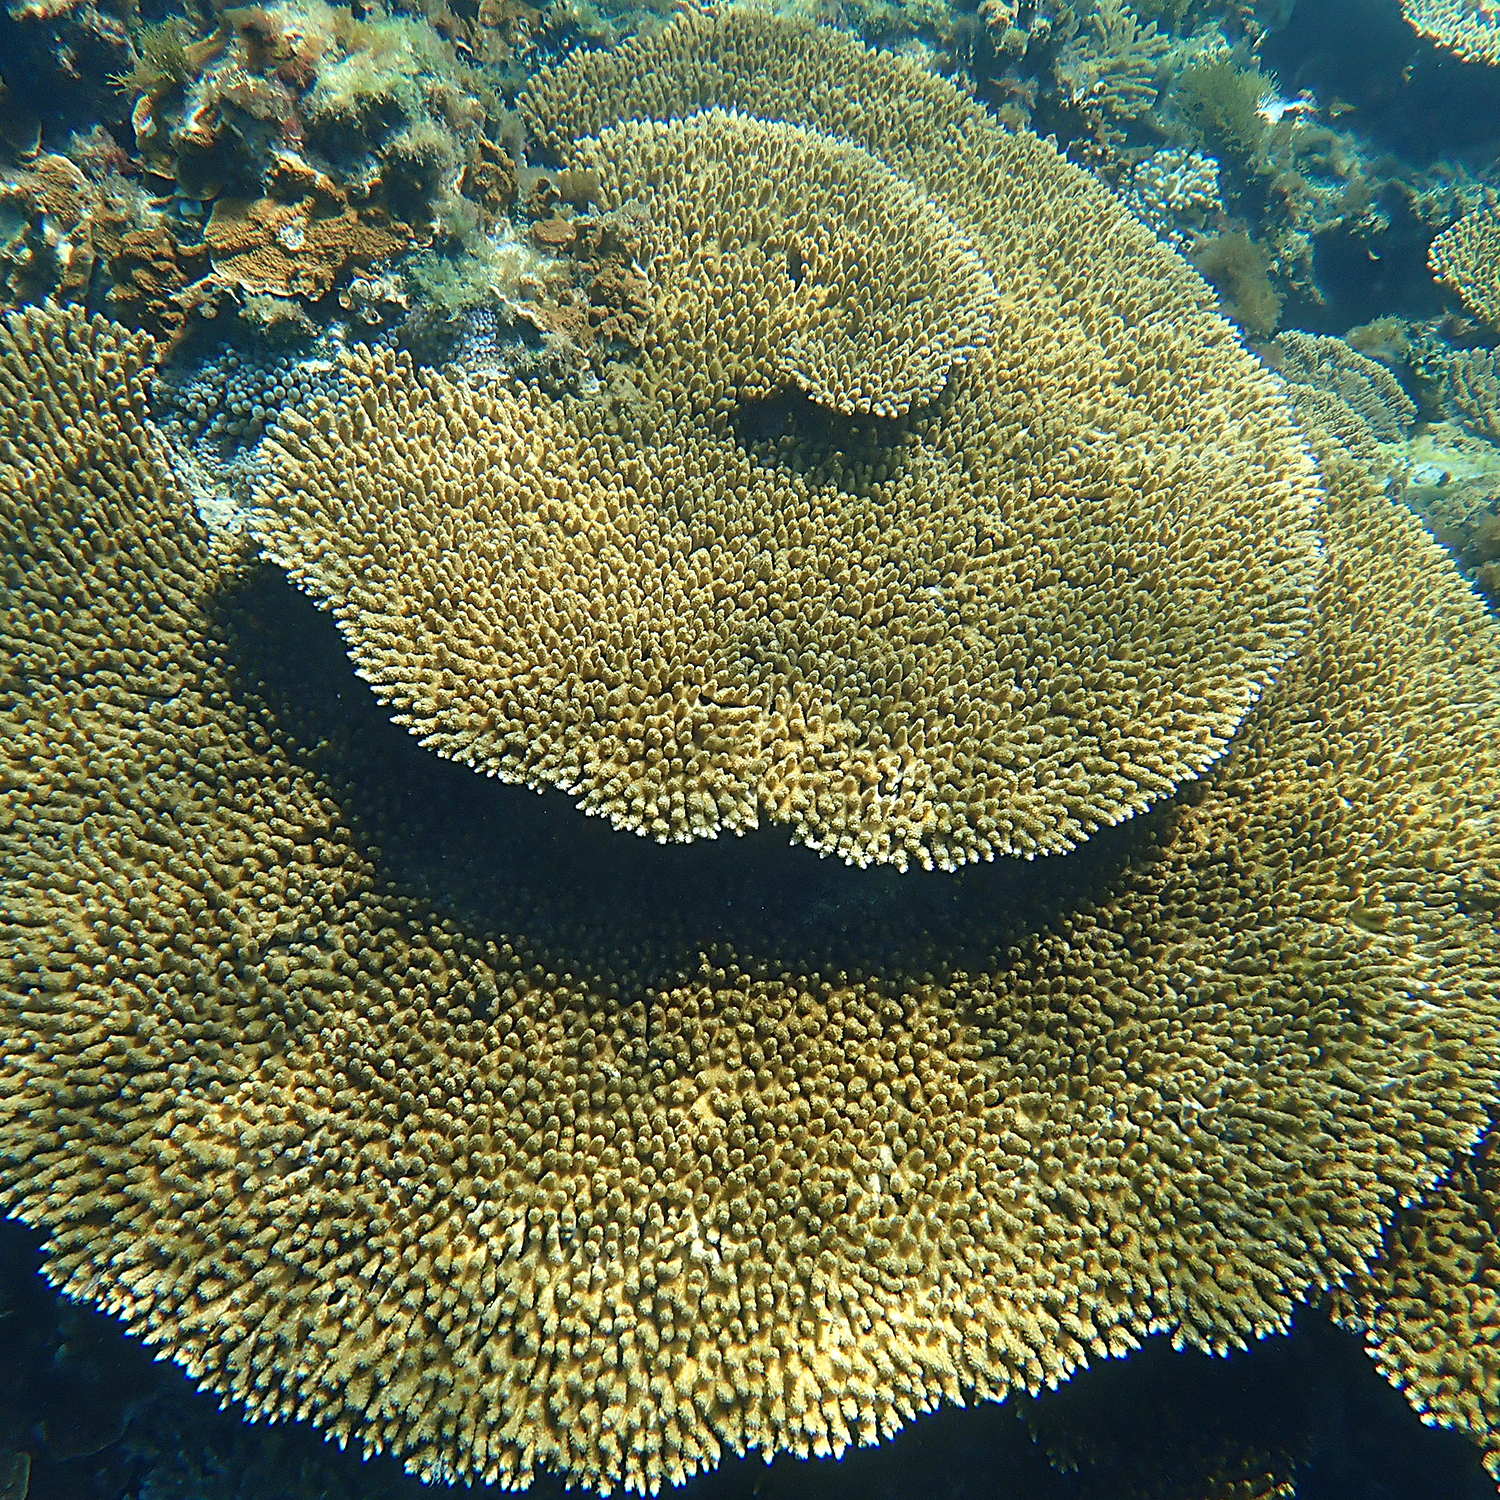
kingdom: Animalia
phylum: Cnidaria
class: Anthozoa
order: Scleractinia
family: Acroporidae
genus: Acropora
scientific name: Acropora solitaryensis
